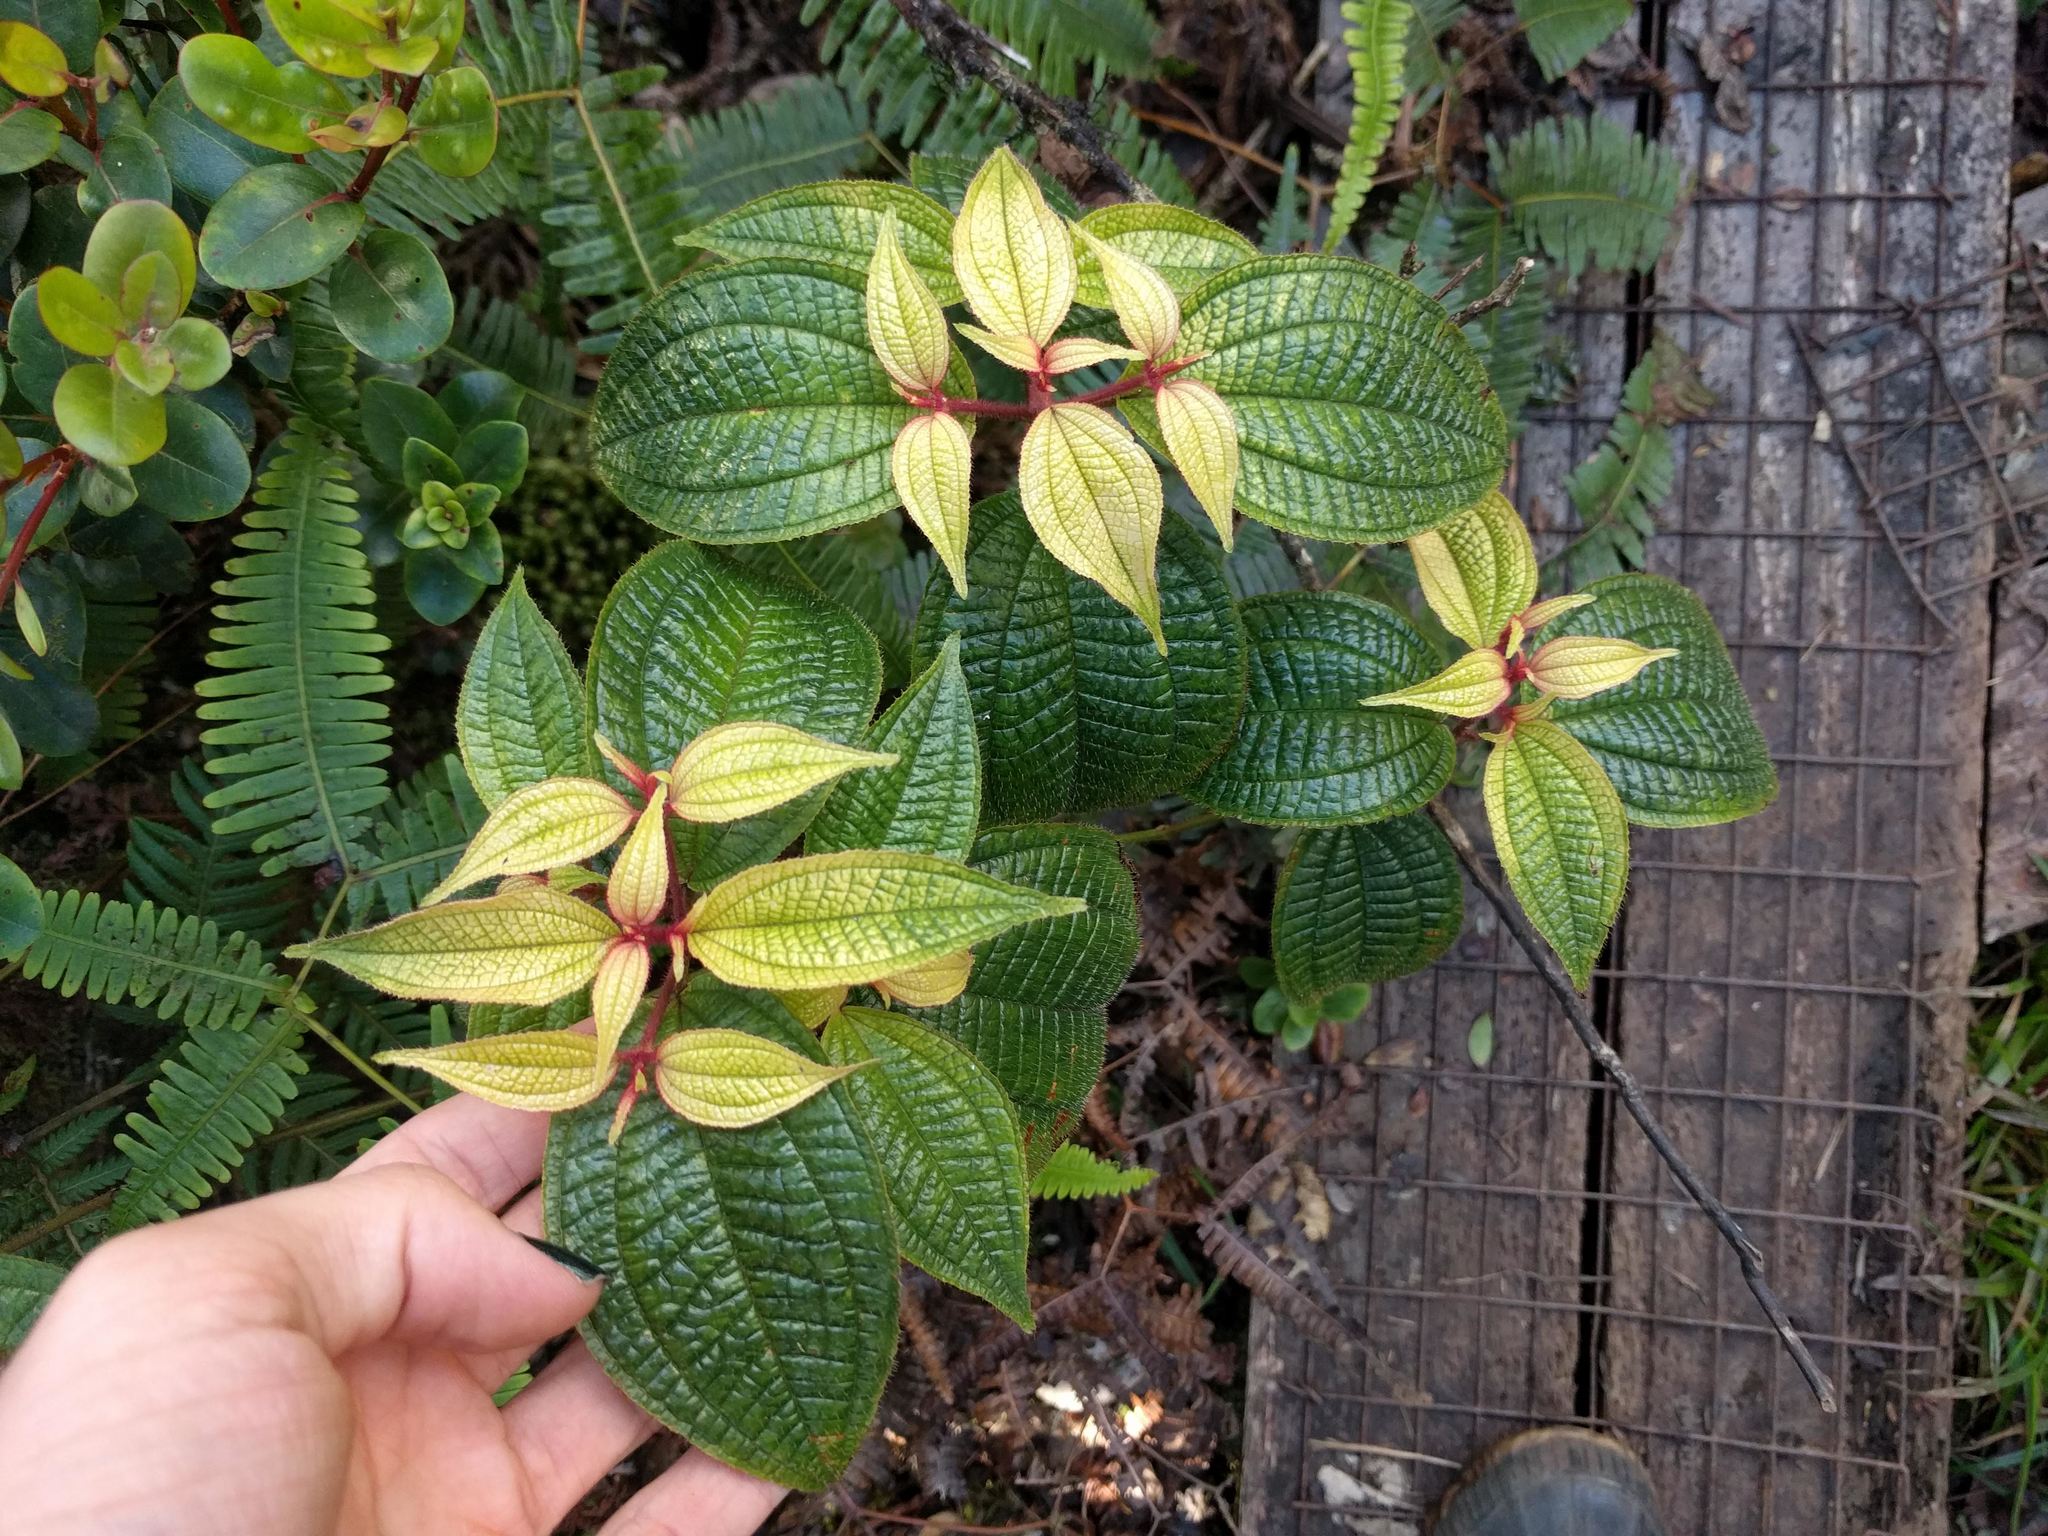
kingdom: Plantae
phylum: Tracheophyta
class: Magnoliopsida
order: Myrtales
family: Melastomataceae
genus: Miconia
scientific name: Miconia crenata
